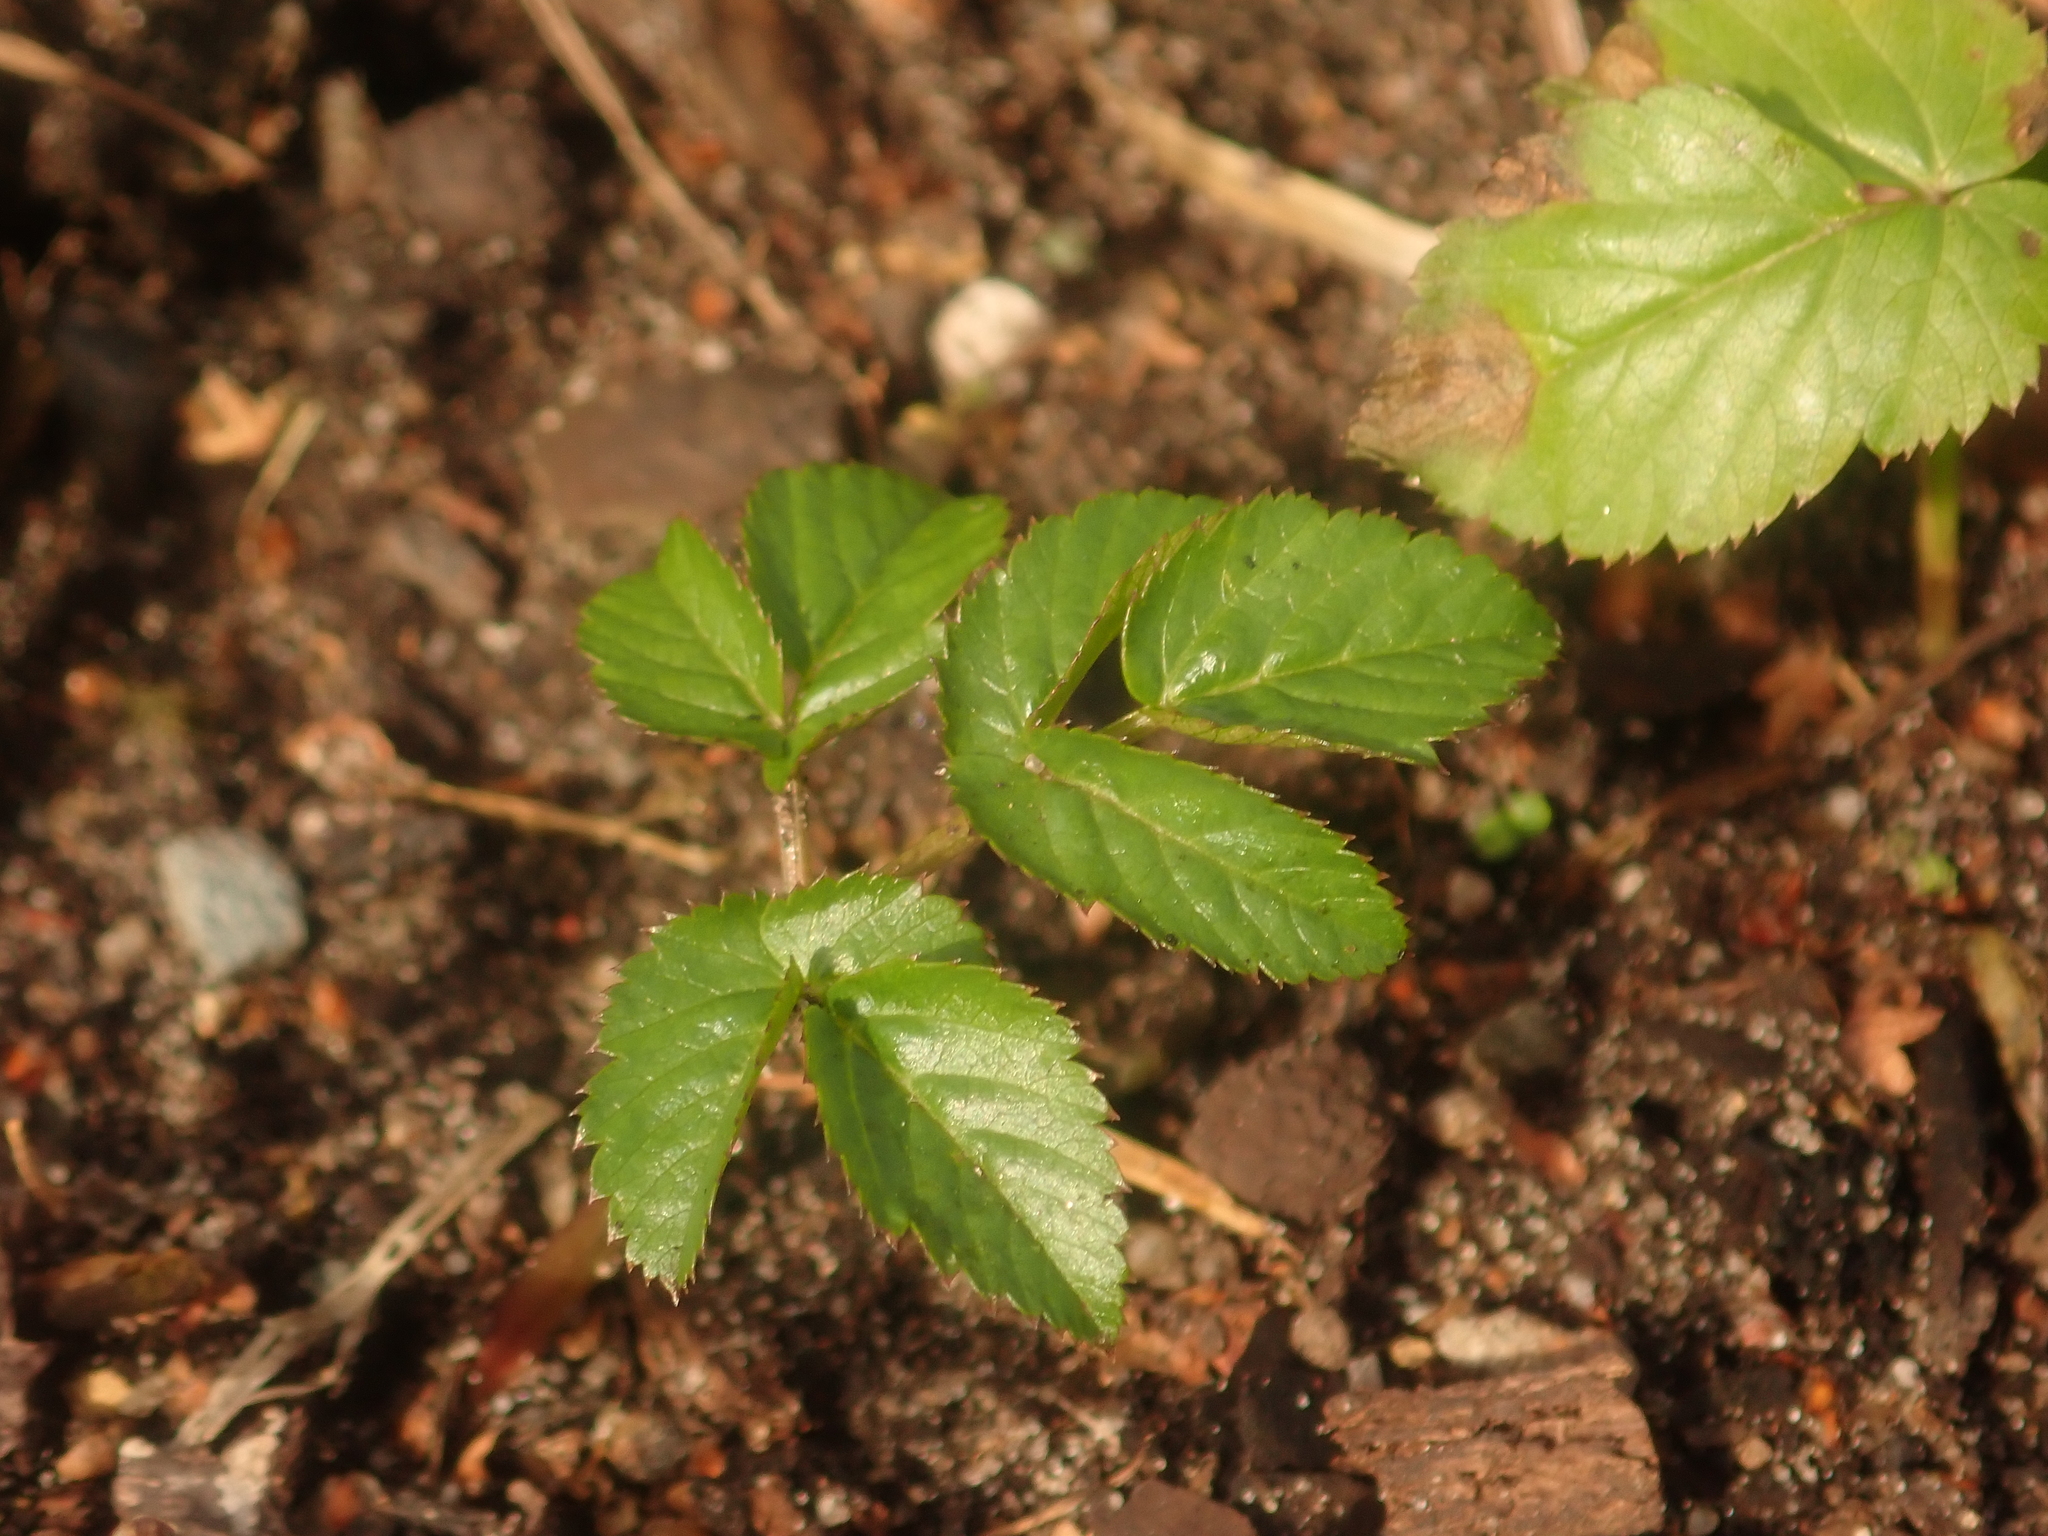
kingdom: Plantae
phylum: Tracheophyta
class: Magnoliopsida
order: Apiales
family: Apiaceae
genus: Aegopodium
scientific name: Aegopodium podagraria
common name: Ground-elder
